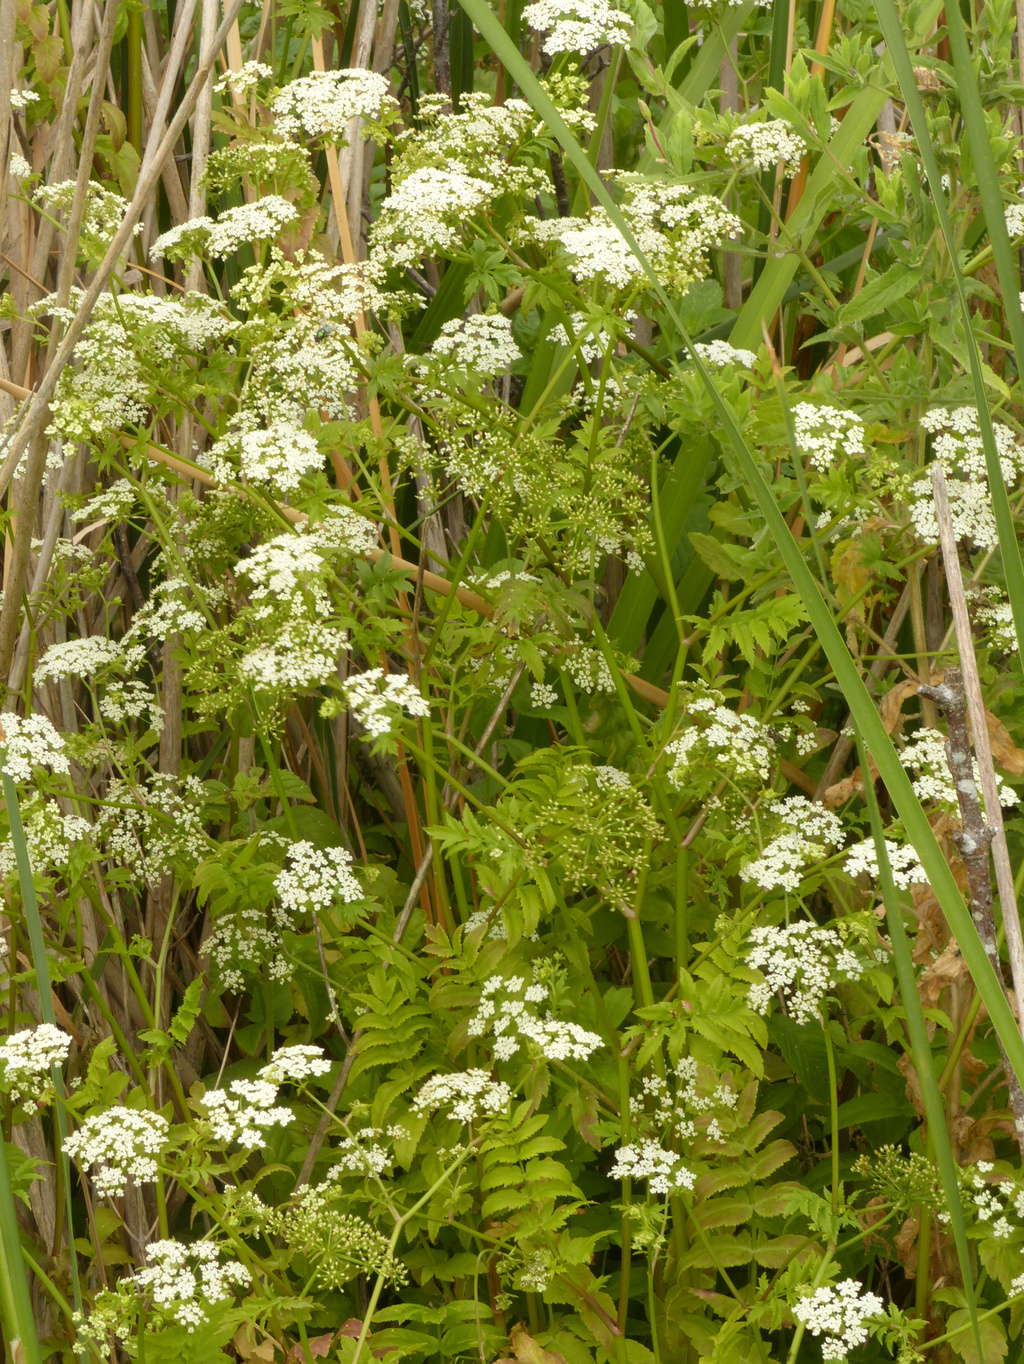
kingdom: Plantae
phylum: Tracheophyta
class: Magnoliopsida
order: Apiales
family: Apiaceae
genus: Berula
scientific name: Berula erecta
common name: Lesser water-parsnip
